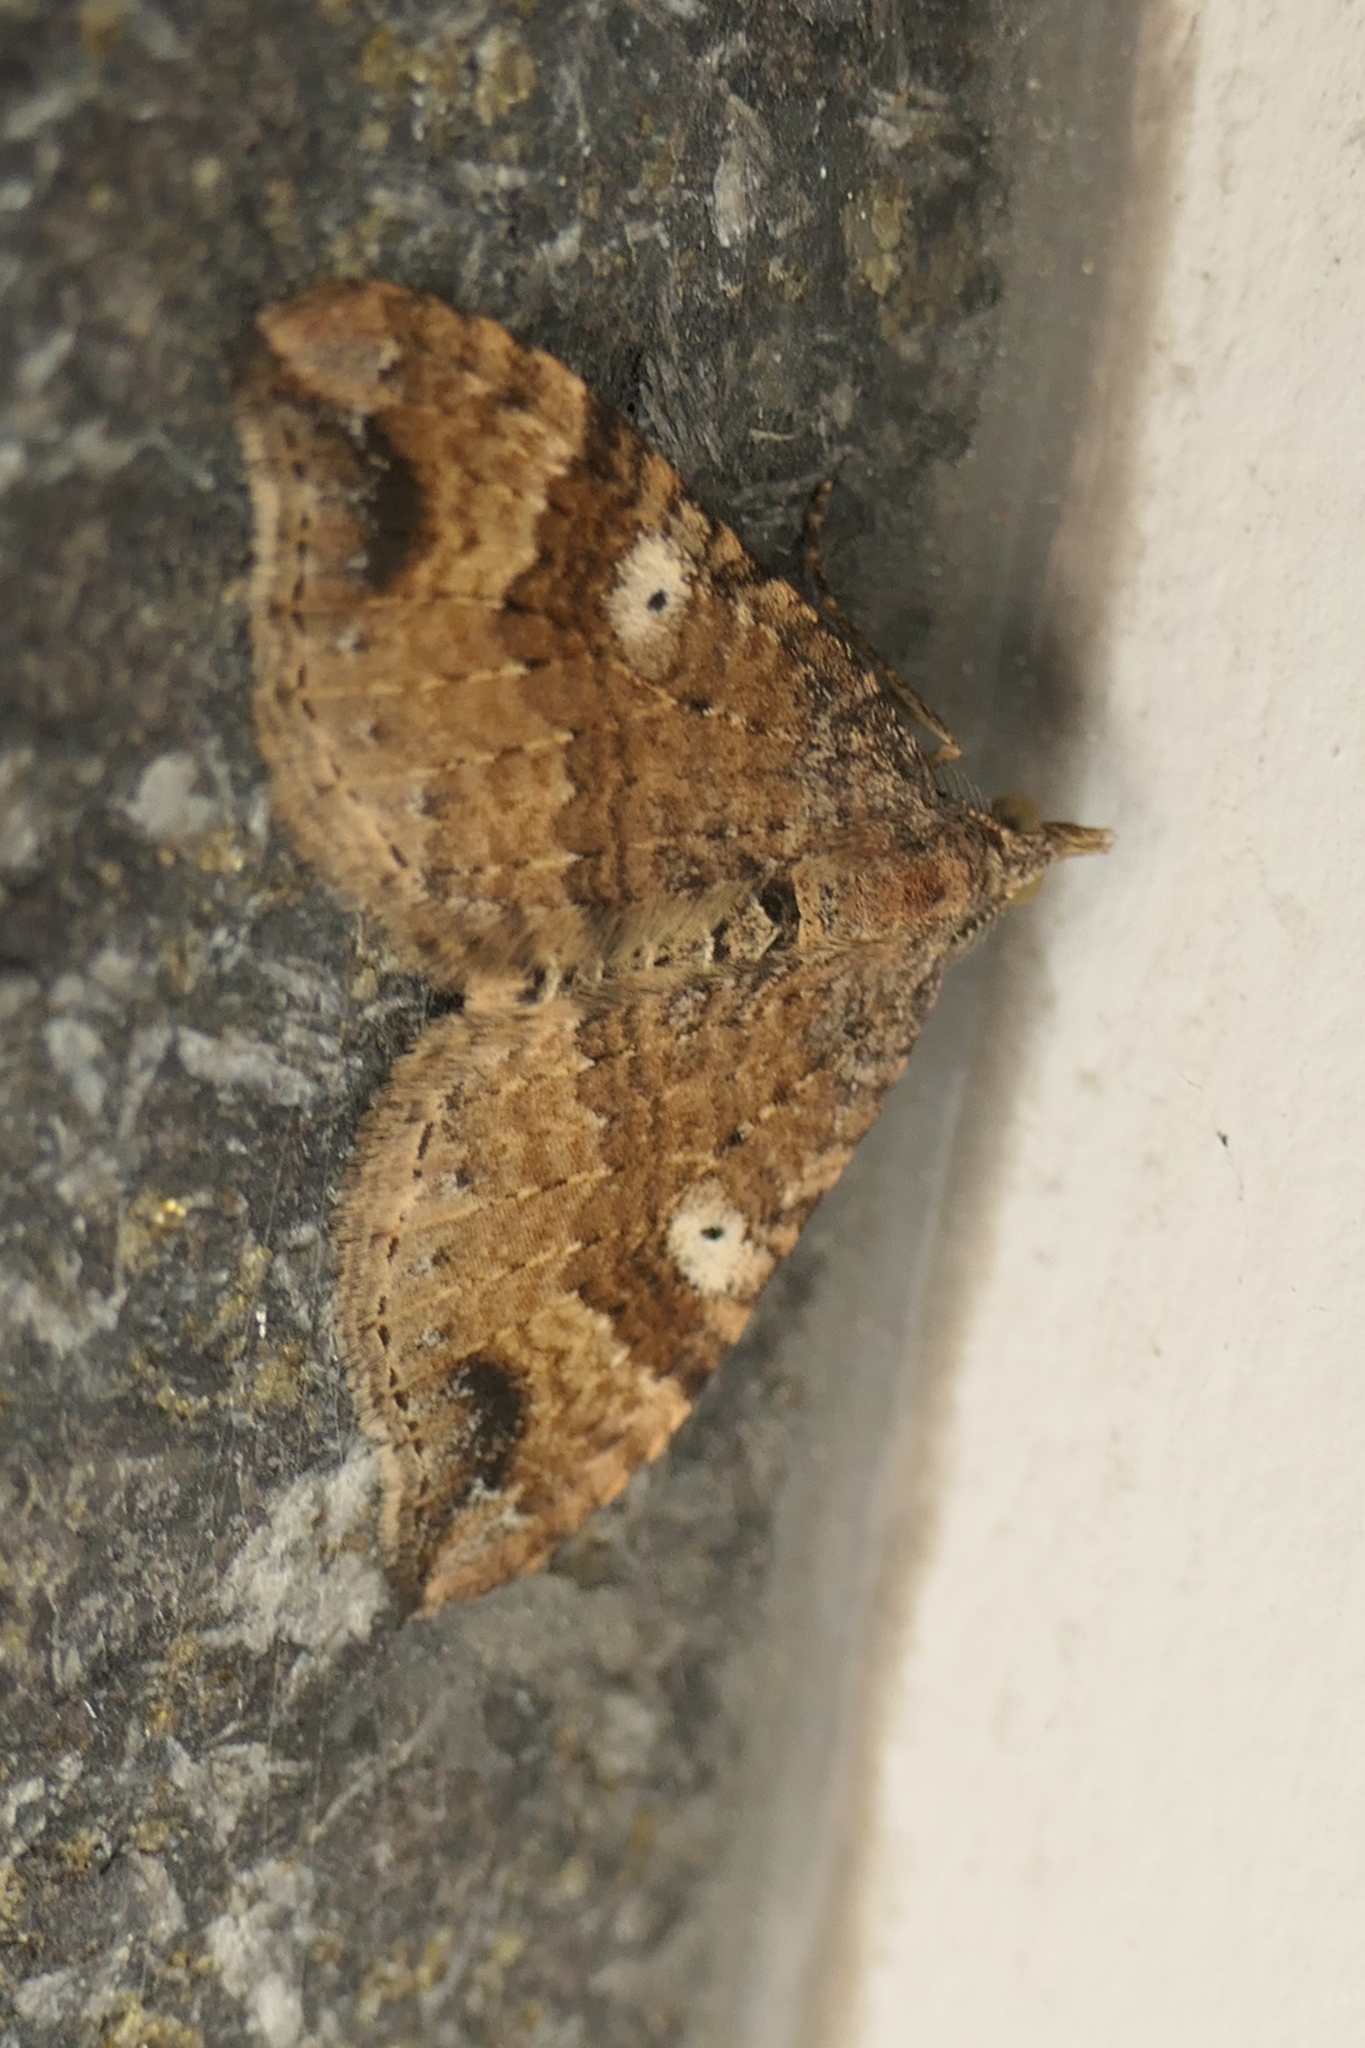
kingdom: Animalia
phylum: Arthropoda
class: Insecta
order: Lepidoptera
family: Geometridae
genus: Homodotis
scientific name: Homodotis megaspilata
